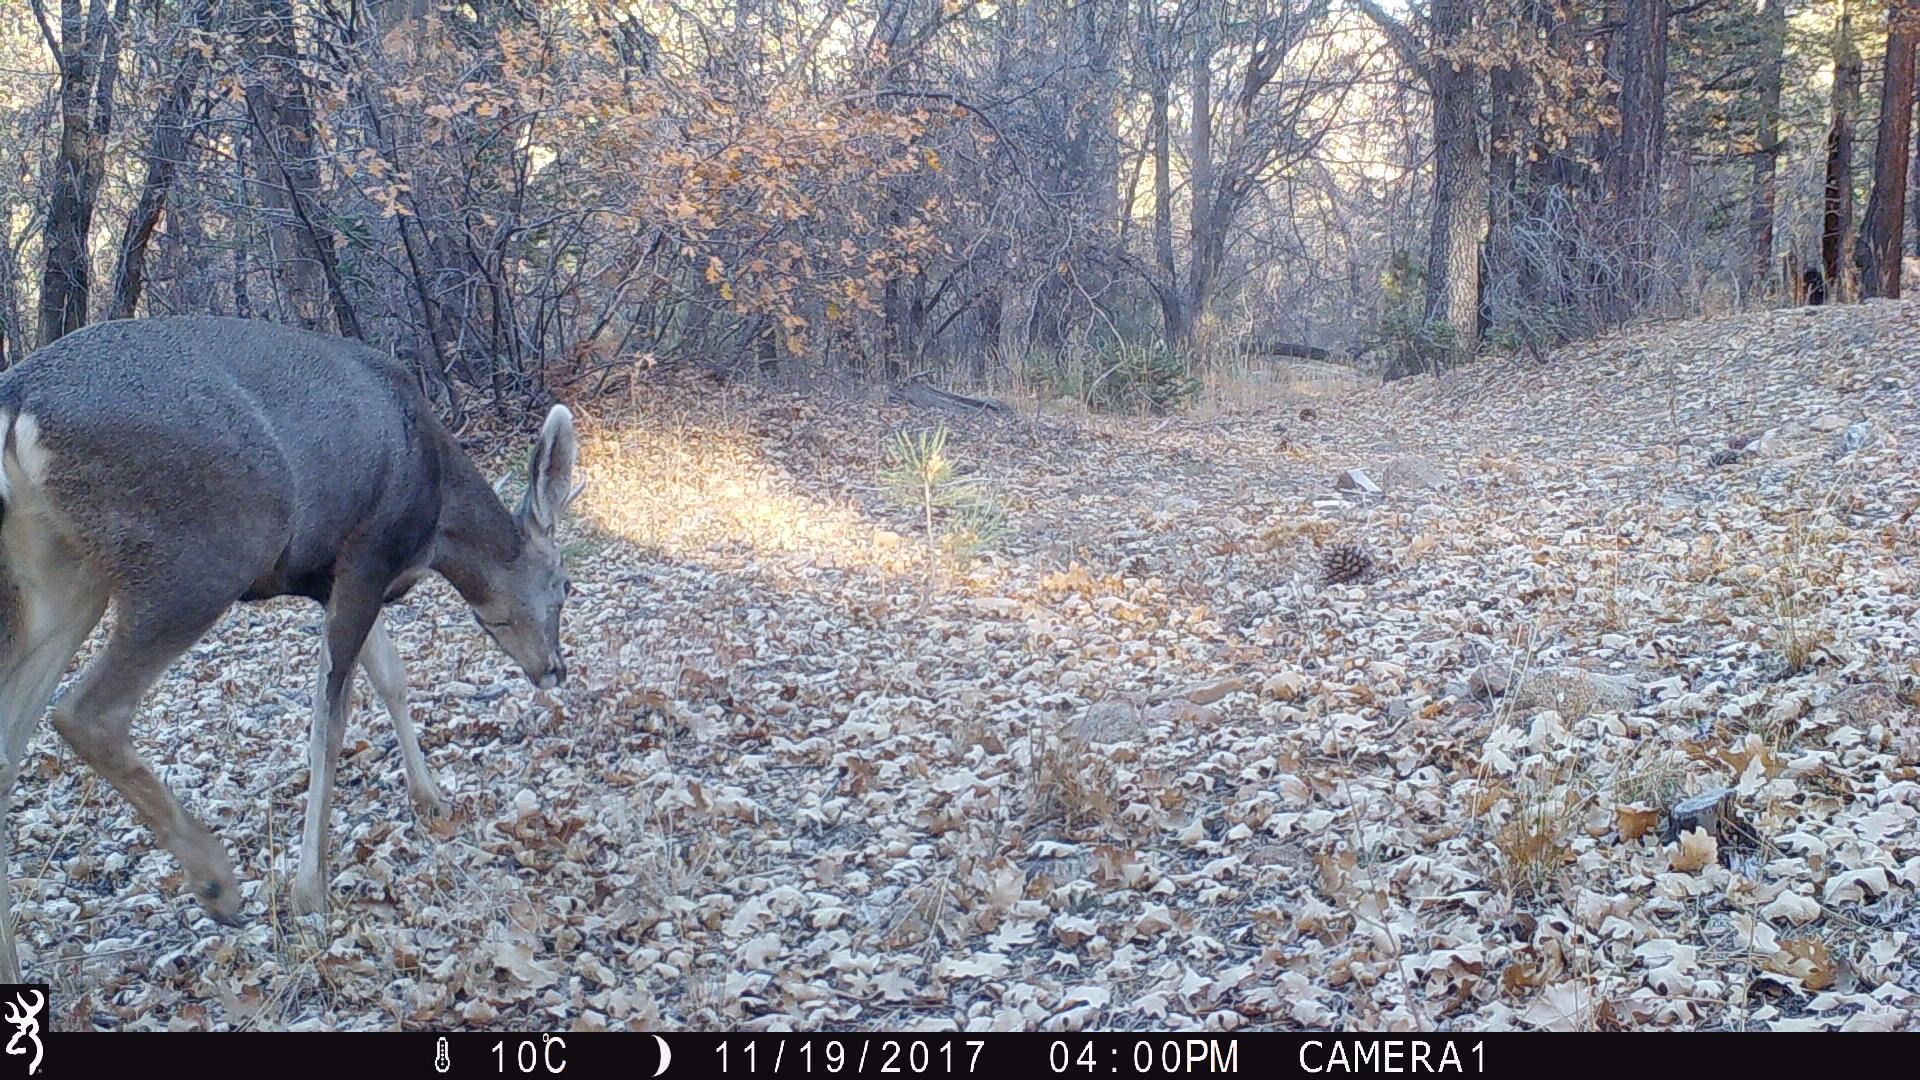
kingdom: Animalia
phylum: Chordata
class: Mammalia
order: Artiodactyla
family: Cervidae
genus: Odocoileus
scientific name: Odocoileus hemionus
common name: Mule deer
